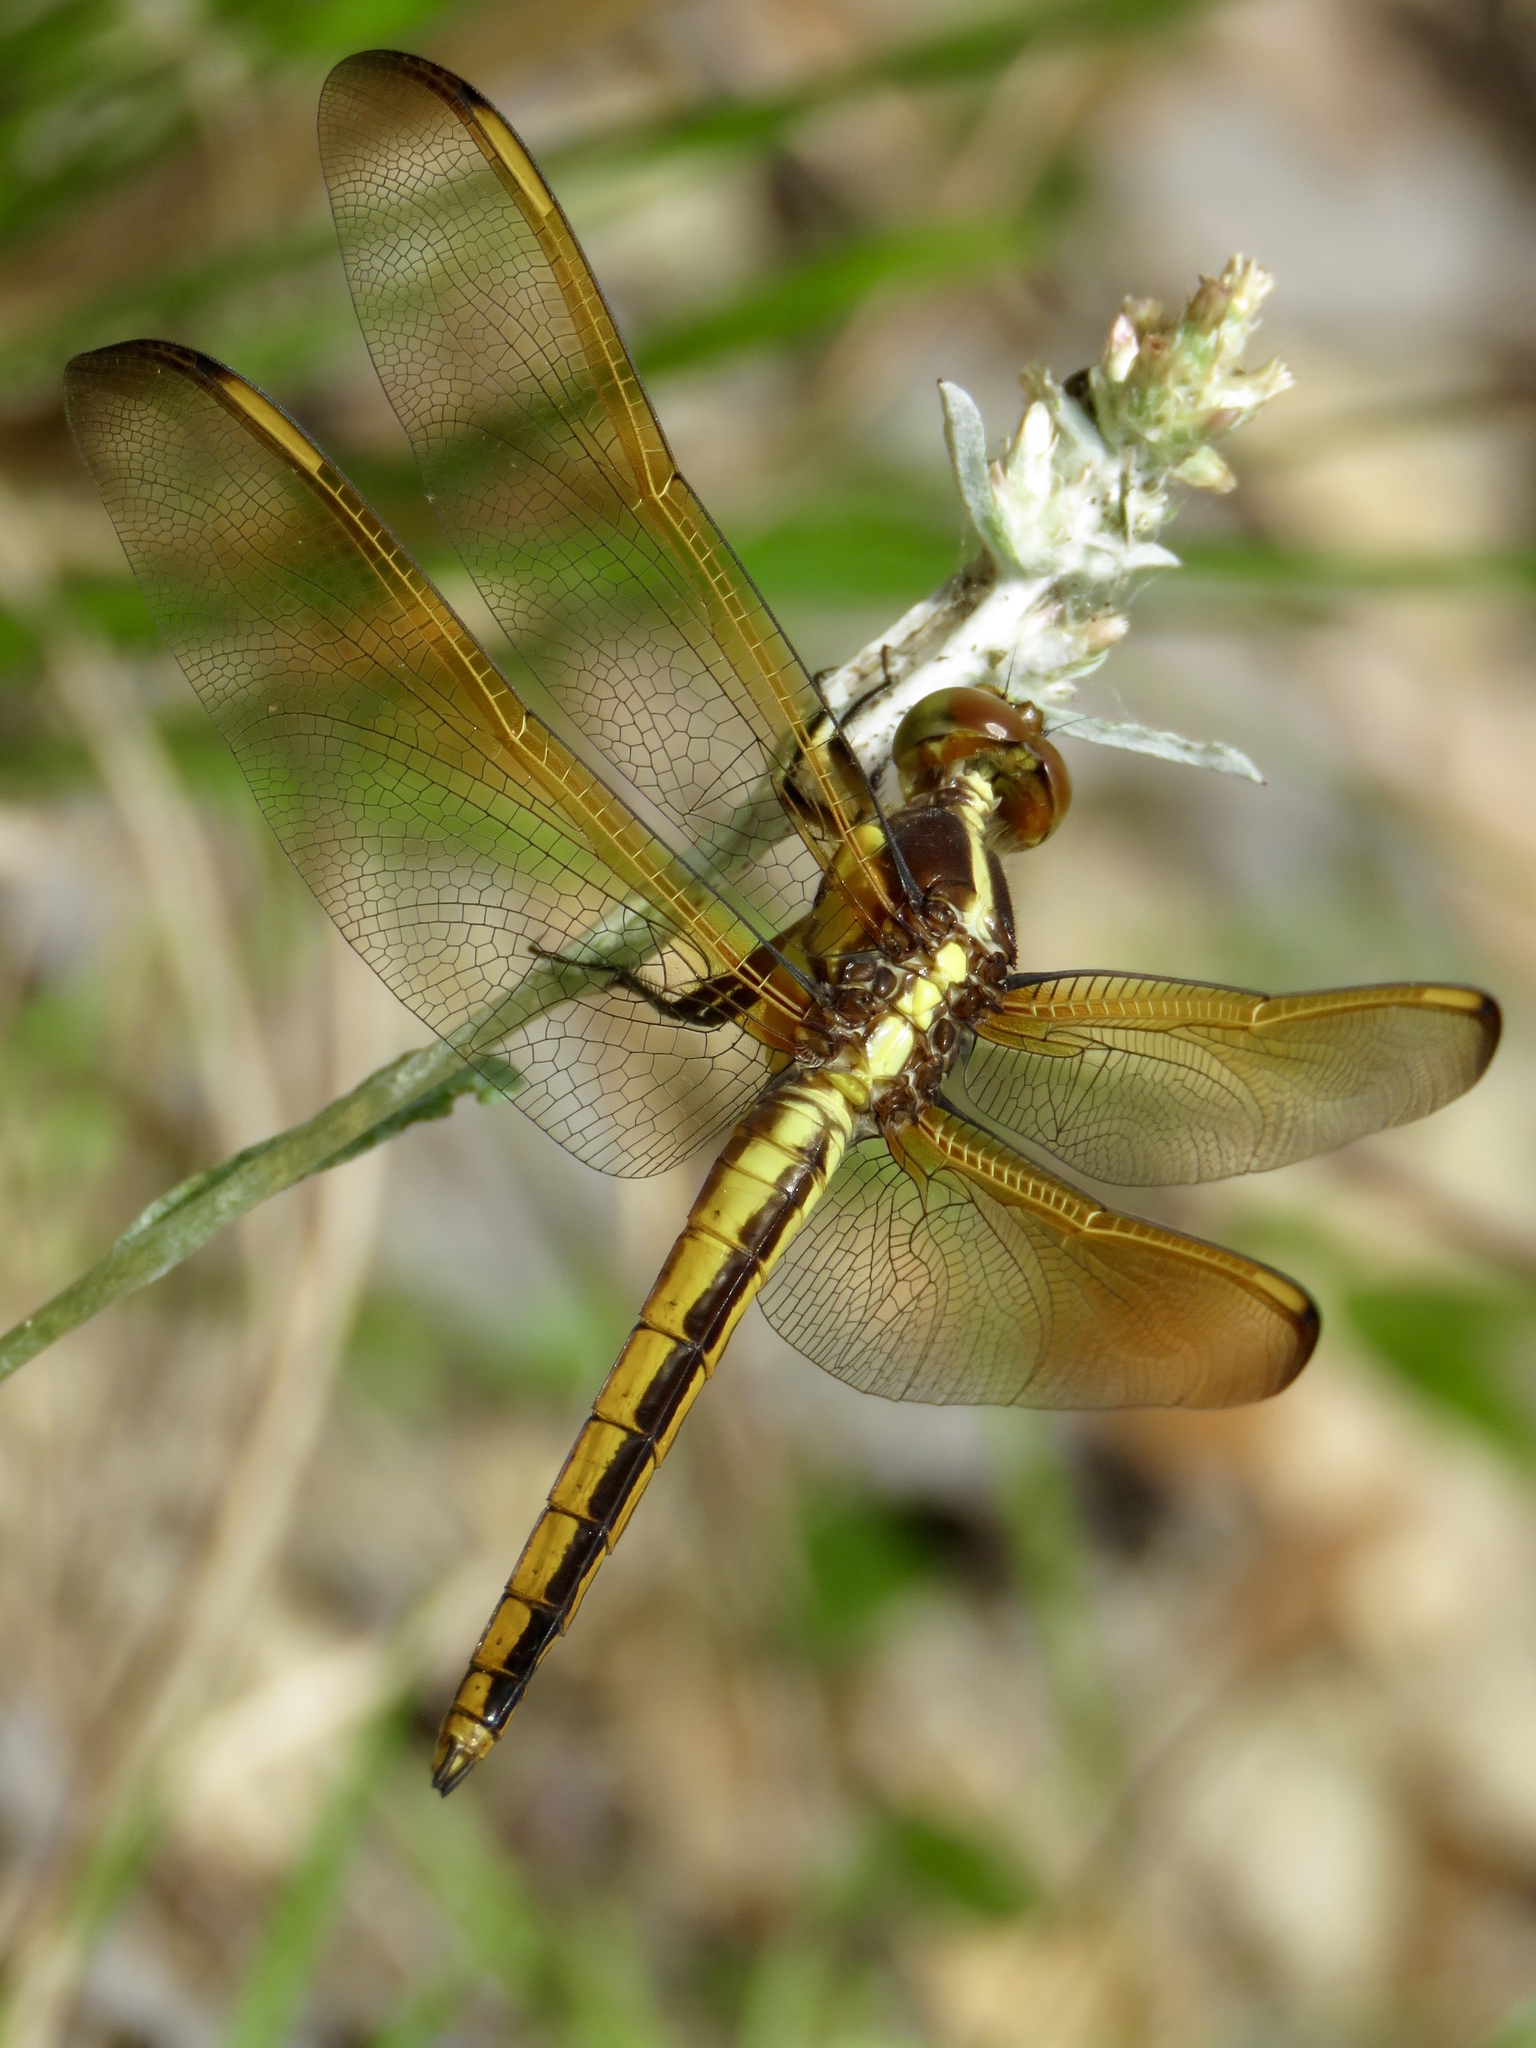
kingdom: Animalia
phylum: Arthropoda
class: Insecta
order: Odonata
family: Libellulidae
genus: Libellula
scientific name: Libellula flavida
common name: Yellow-sided skimmer
